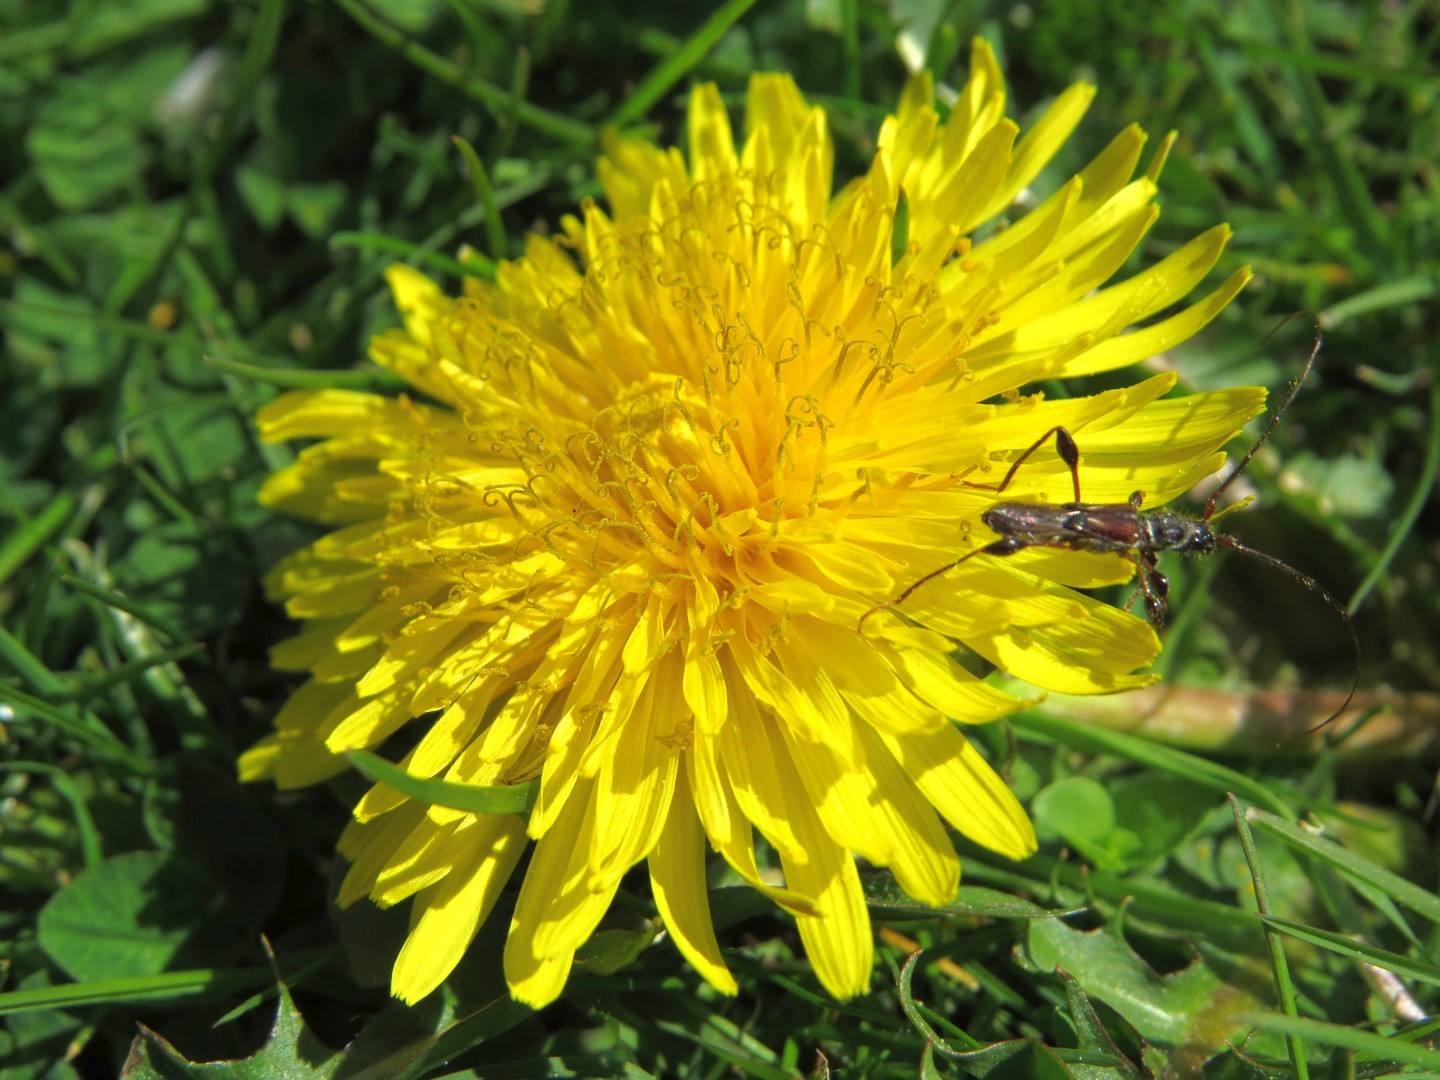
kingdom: Animalia
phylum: Arthropoda
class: Insecta
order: Coleoptera
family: Cerambycidae
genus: Molorchus
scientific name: Molorchus minor
